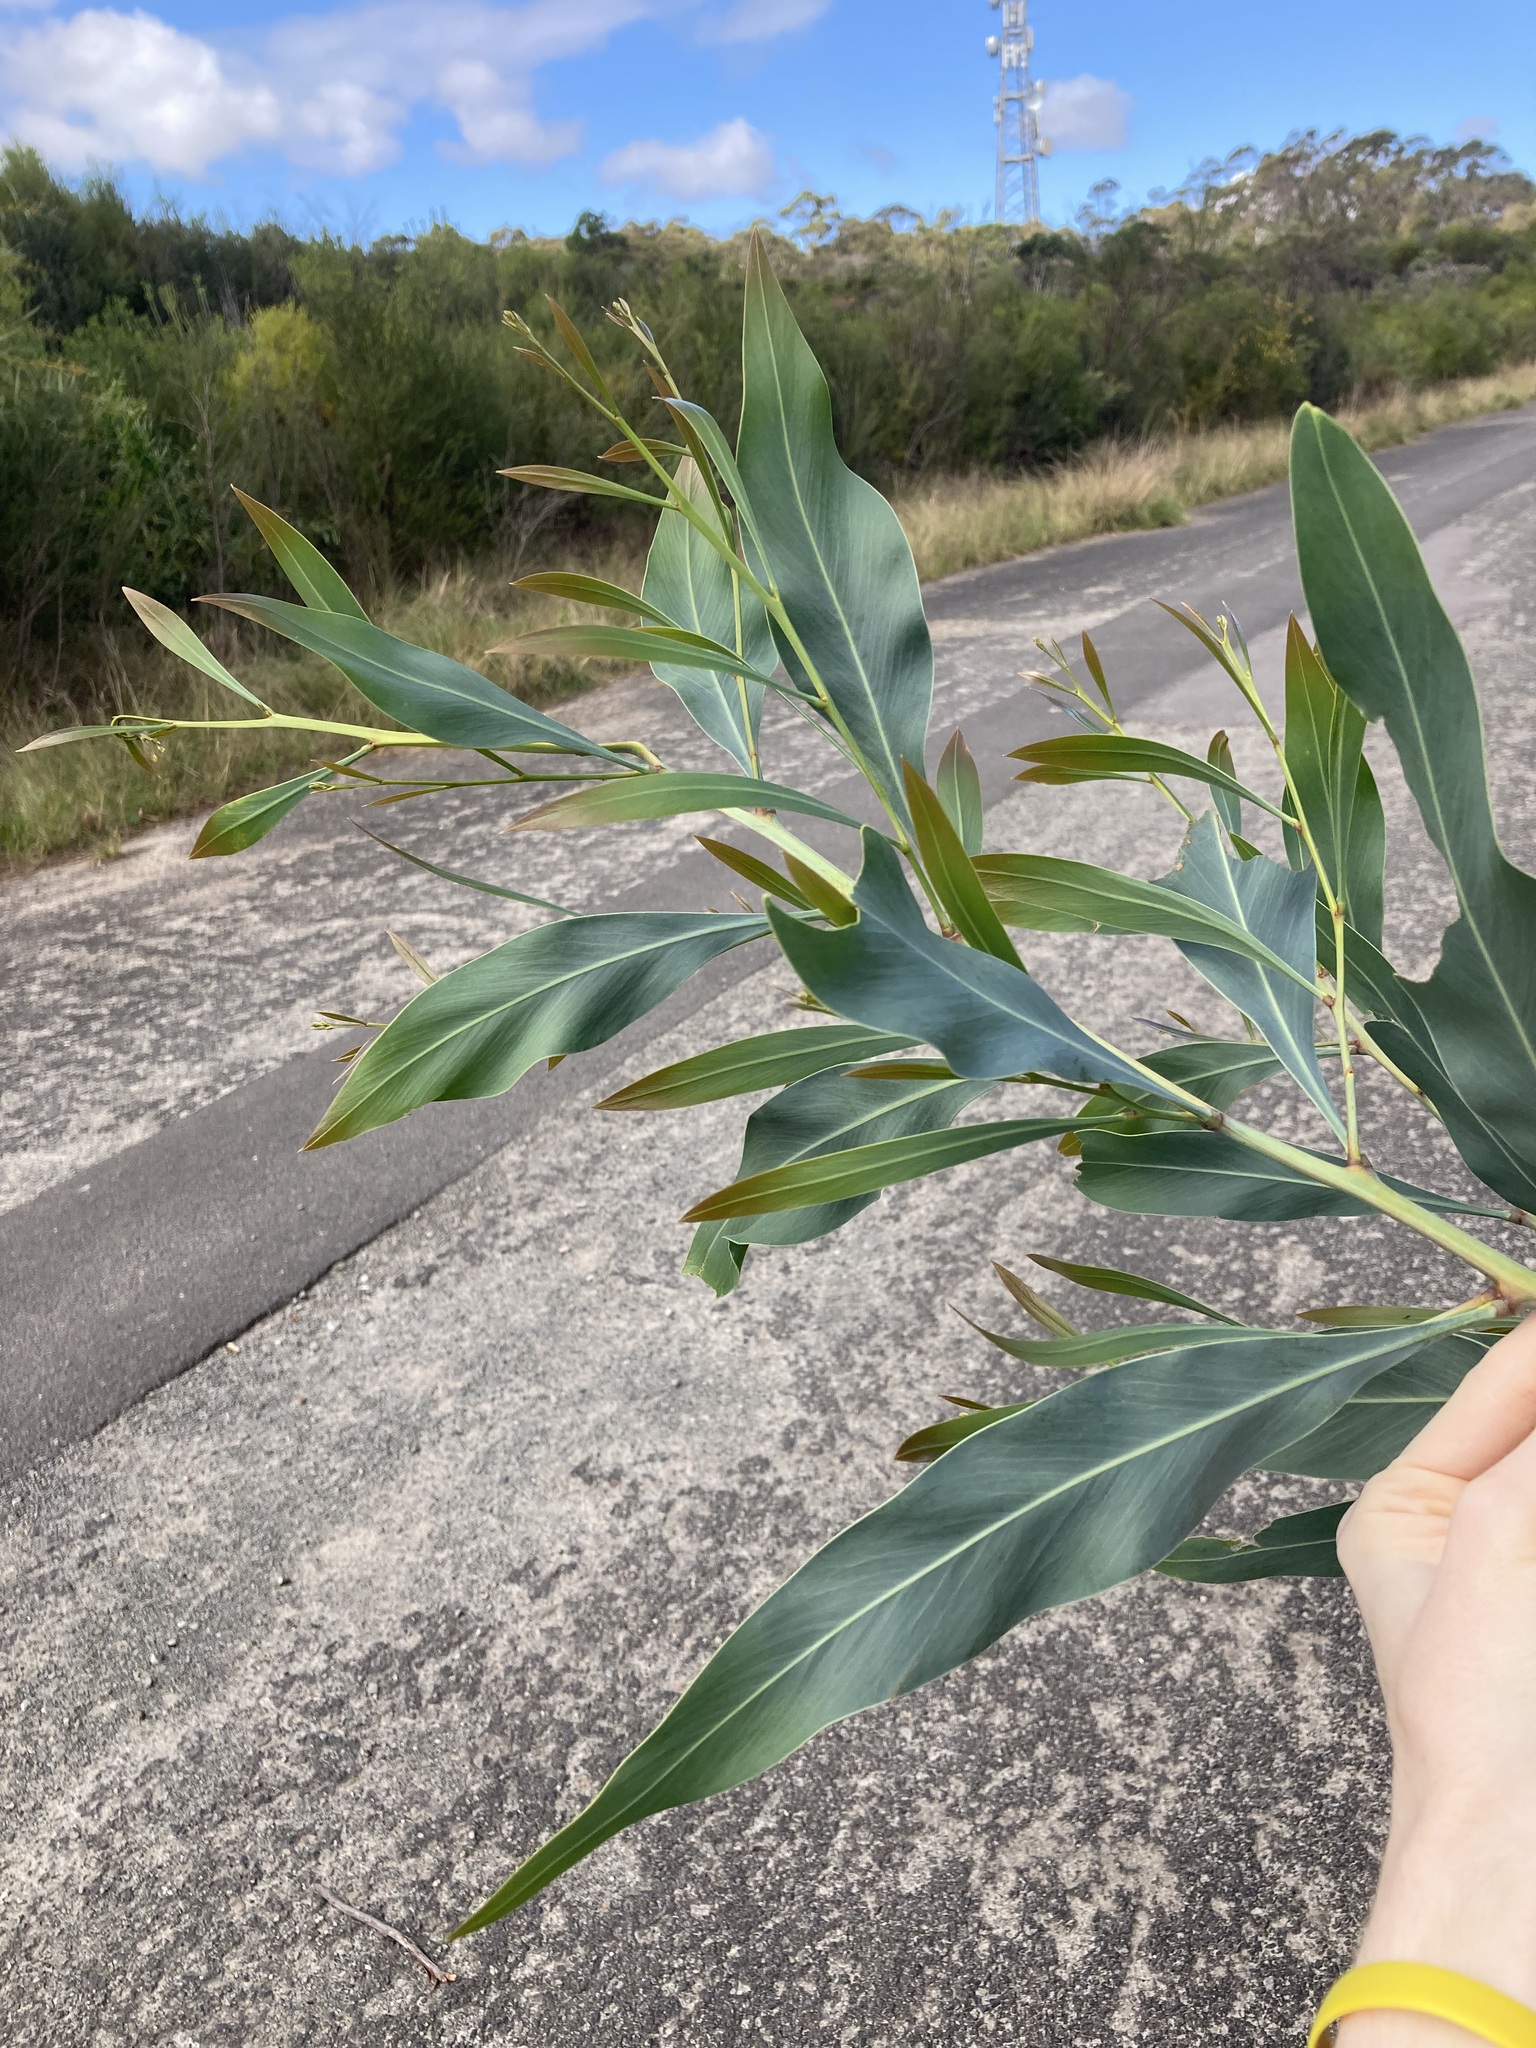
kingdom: Plantae
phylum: Tracheophyta
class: Magnoliopsida
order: Fabales
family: Fabaceae
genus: Acacia
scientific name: Acacia saligna
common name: Orange wattle
